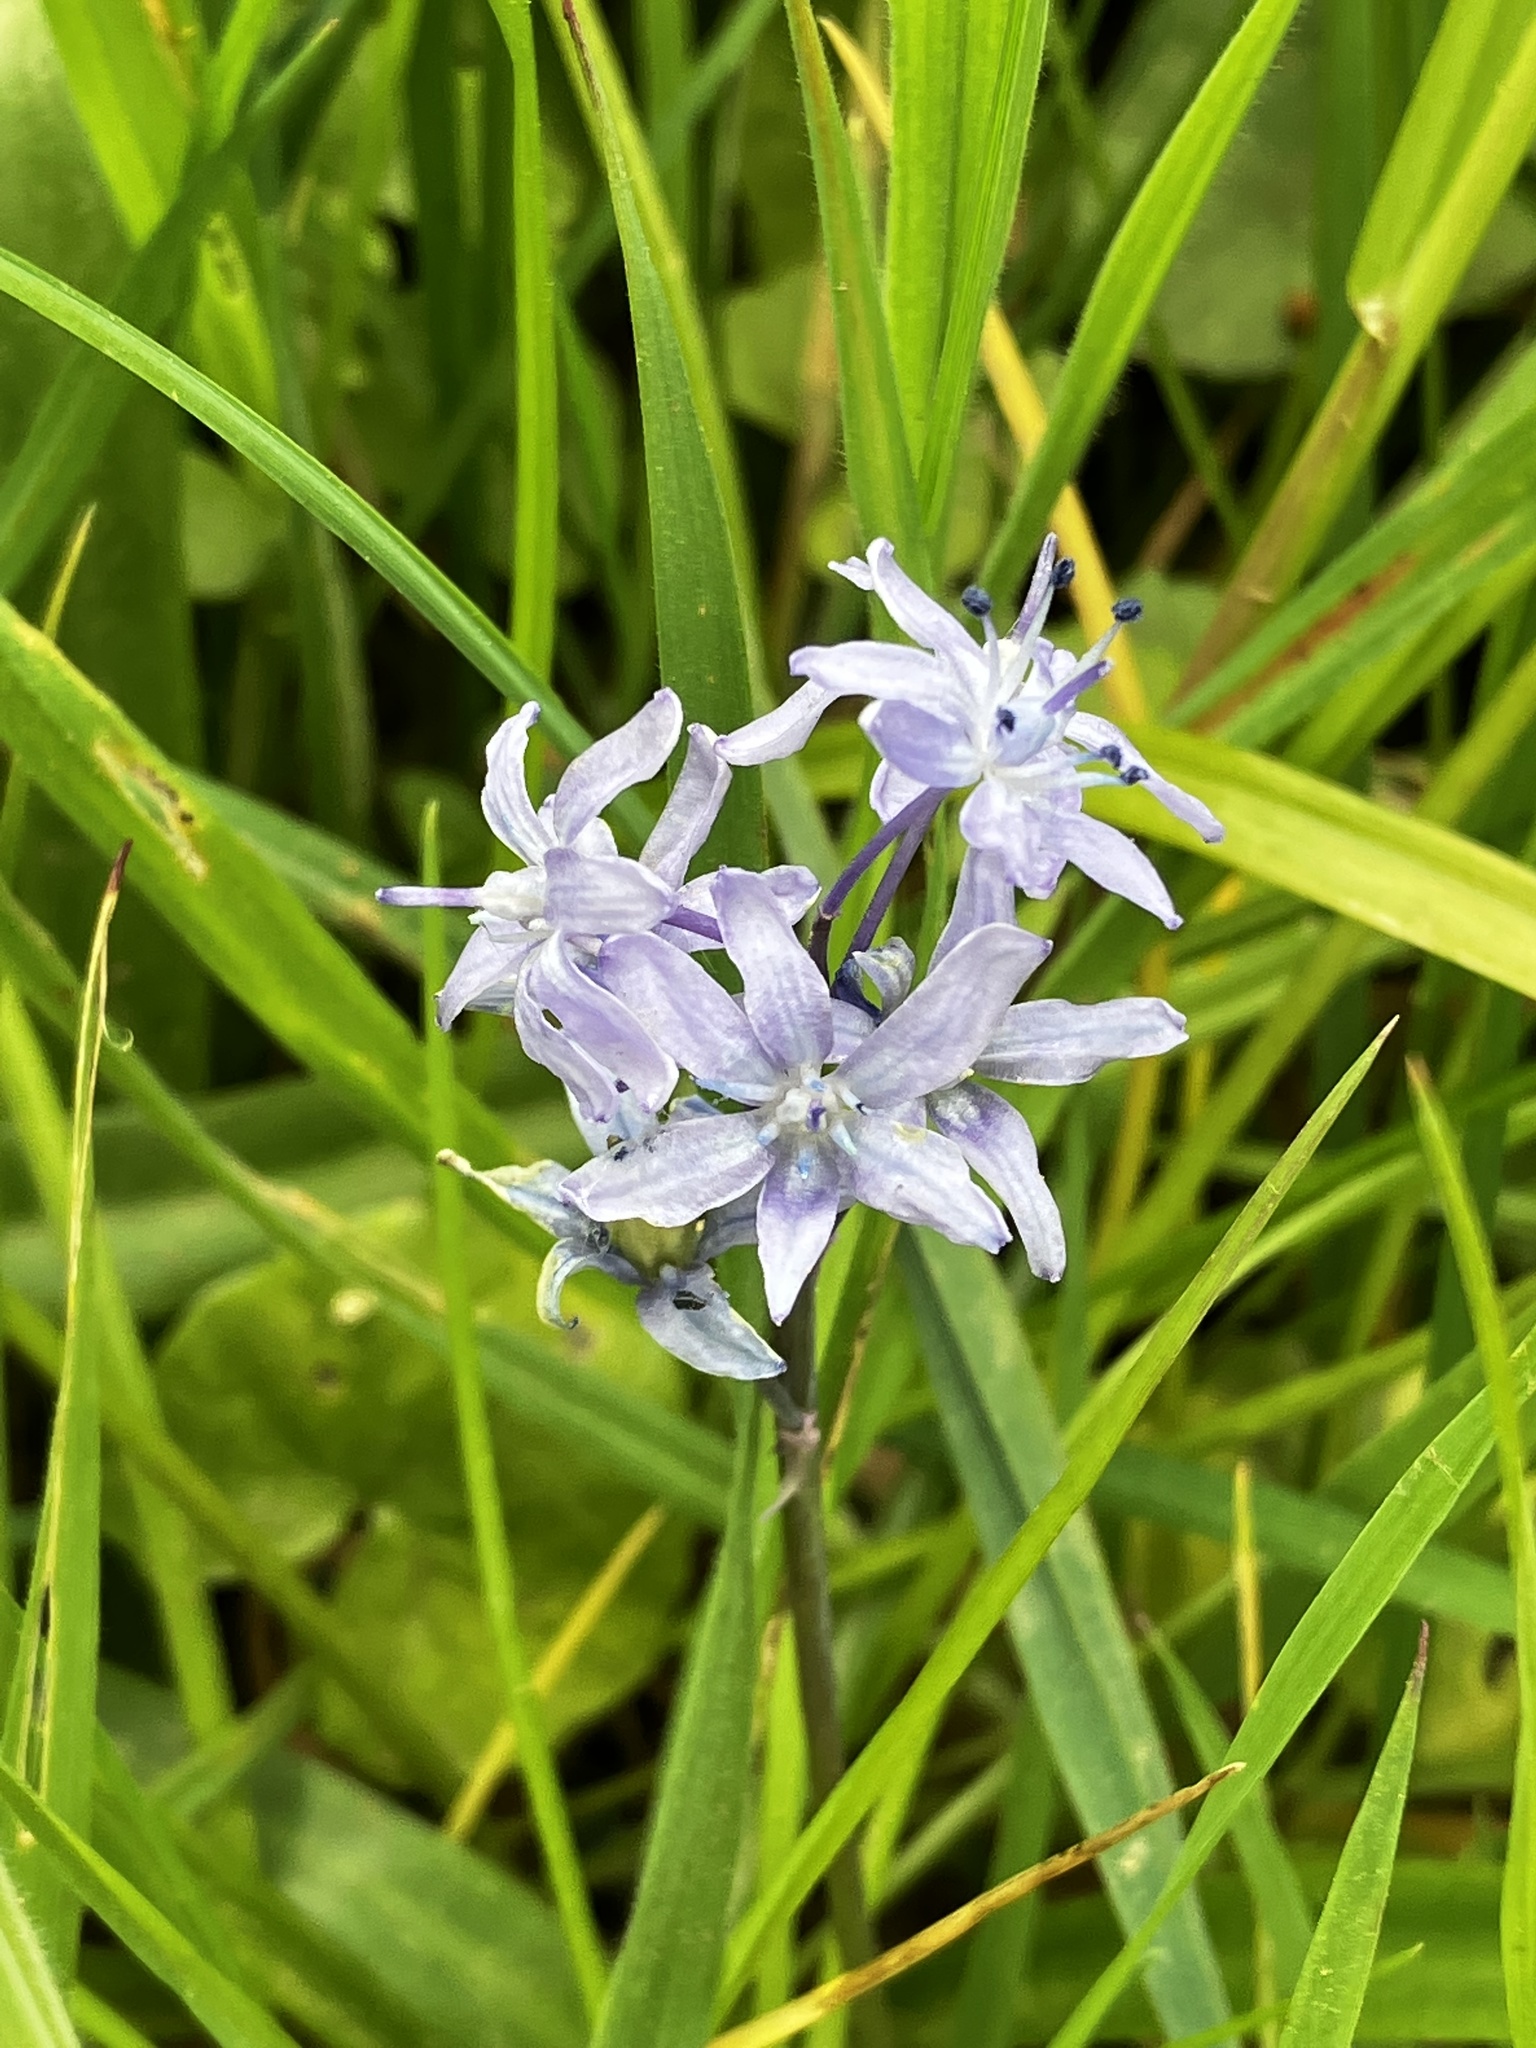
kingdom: Plantae
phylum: Tracheophyta
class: Liliopsida
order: Asparagales
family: Asparagaceae
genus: Scilla
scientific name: Scilla verna
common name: Spring squill
